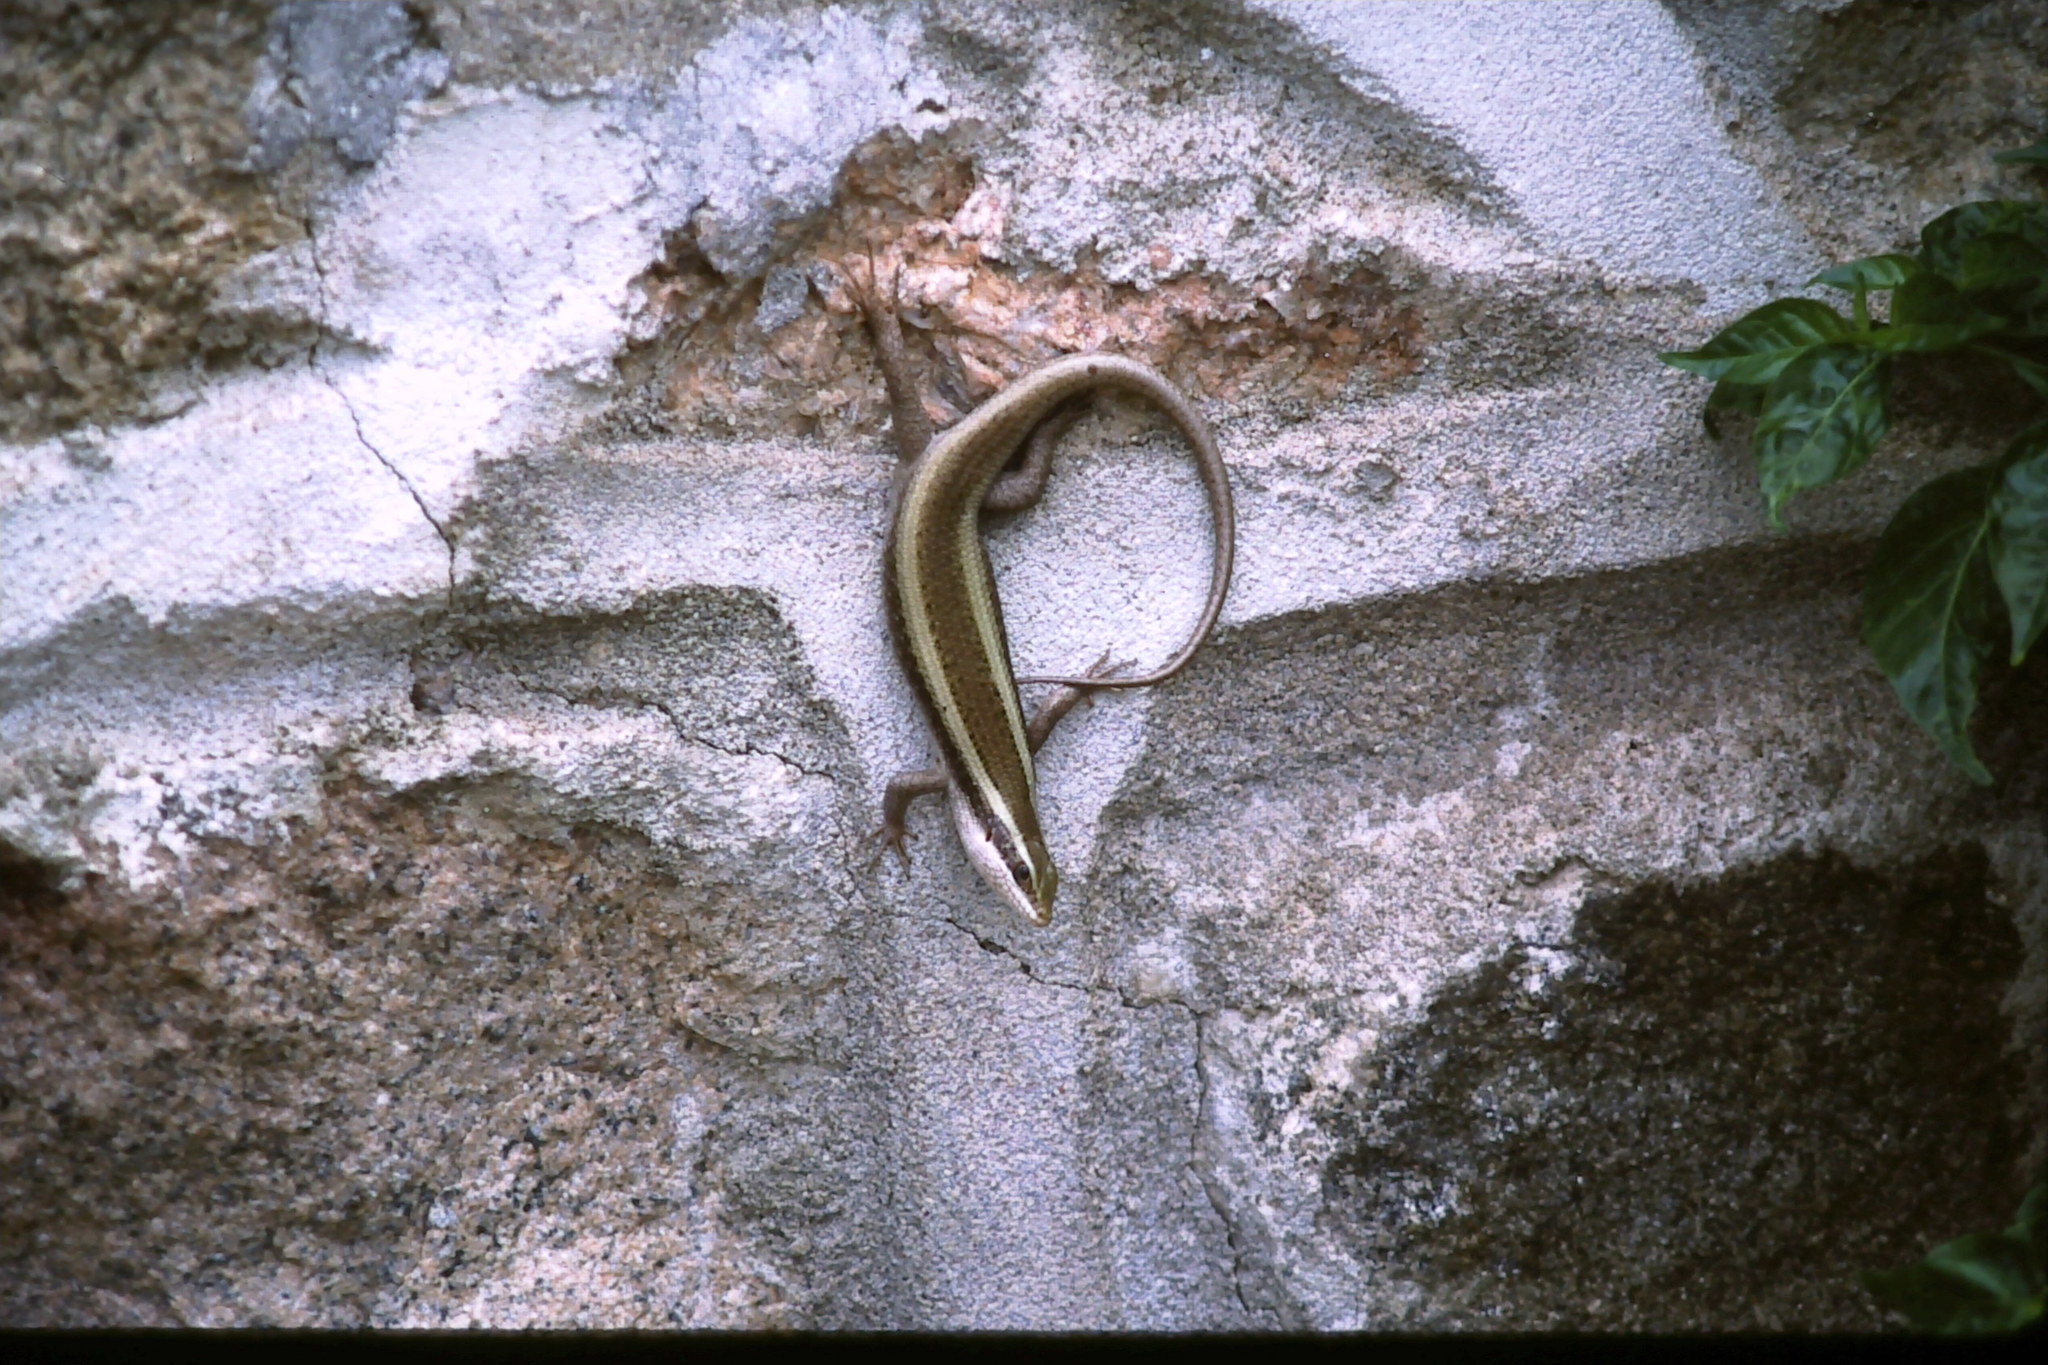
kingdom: Animalia
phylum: Chordata
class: Squamata
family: Scincidae
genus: Trachylepis
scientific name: Trachylepis striata
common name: African striped mabuya
